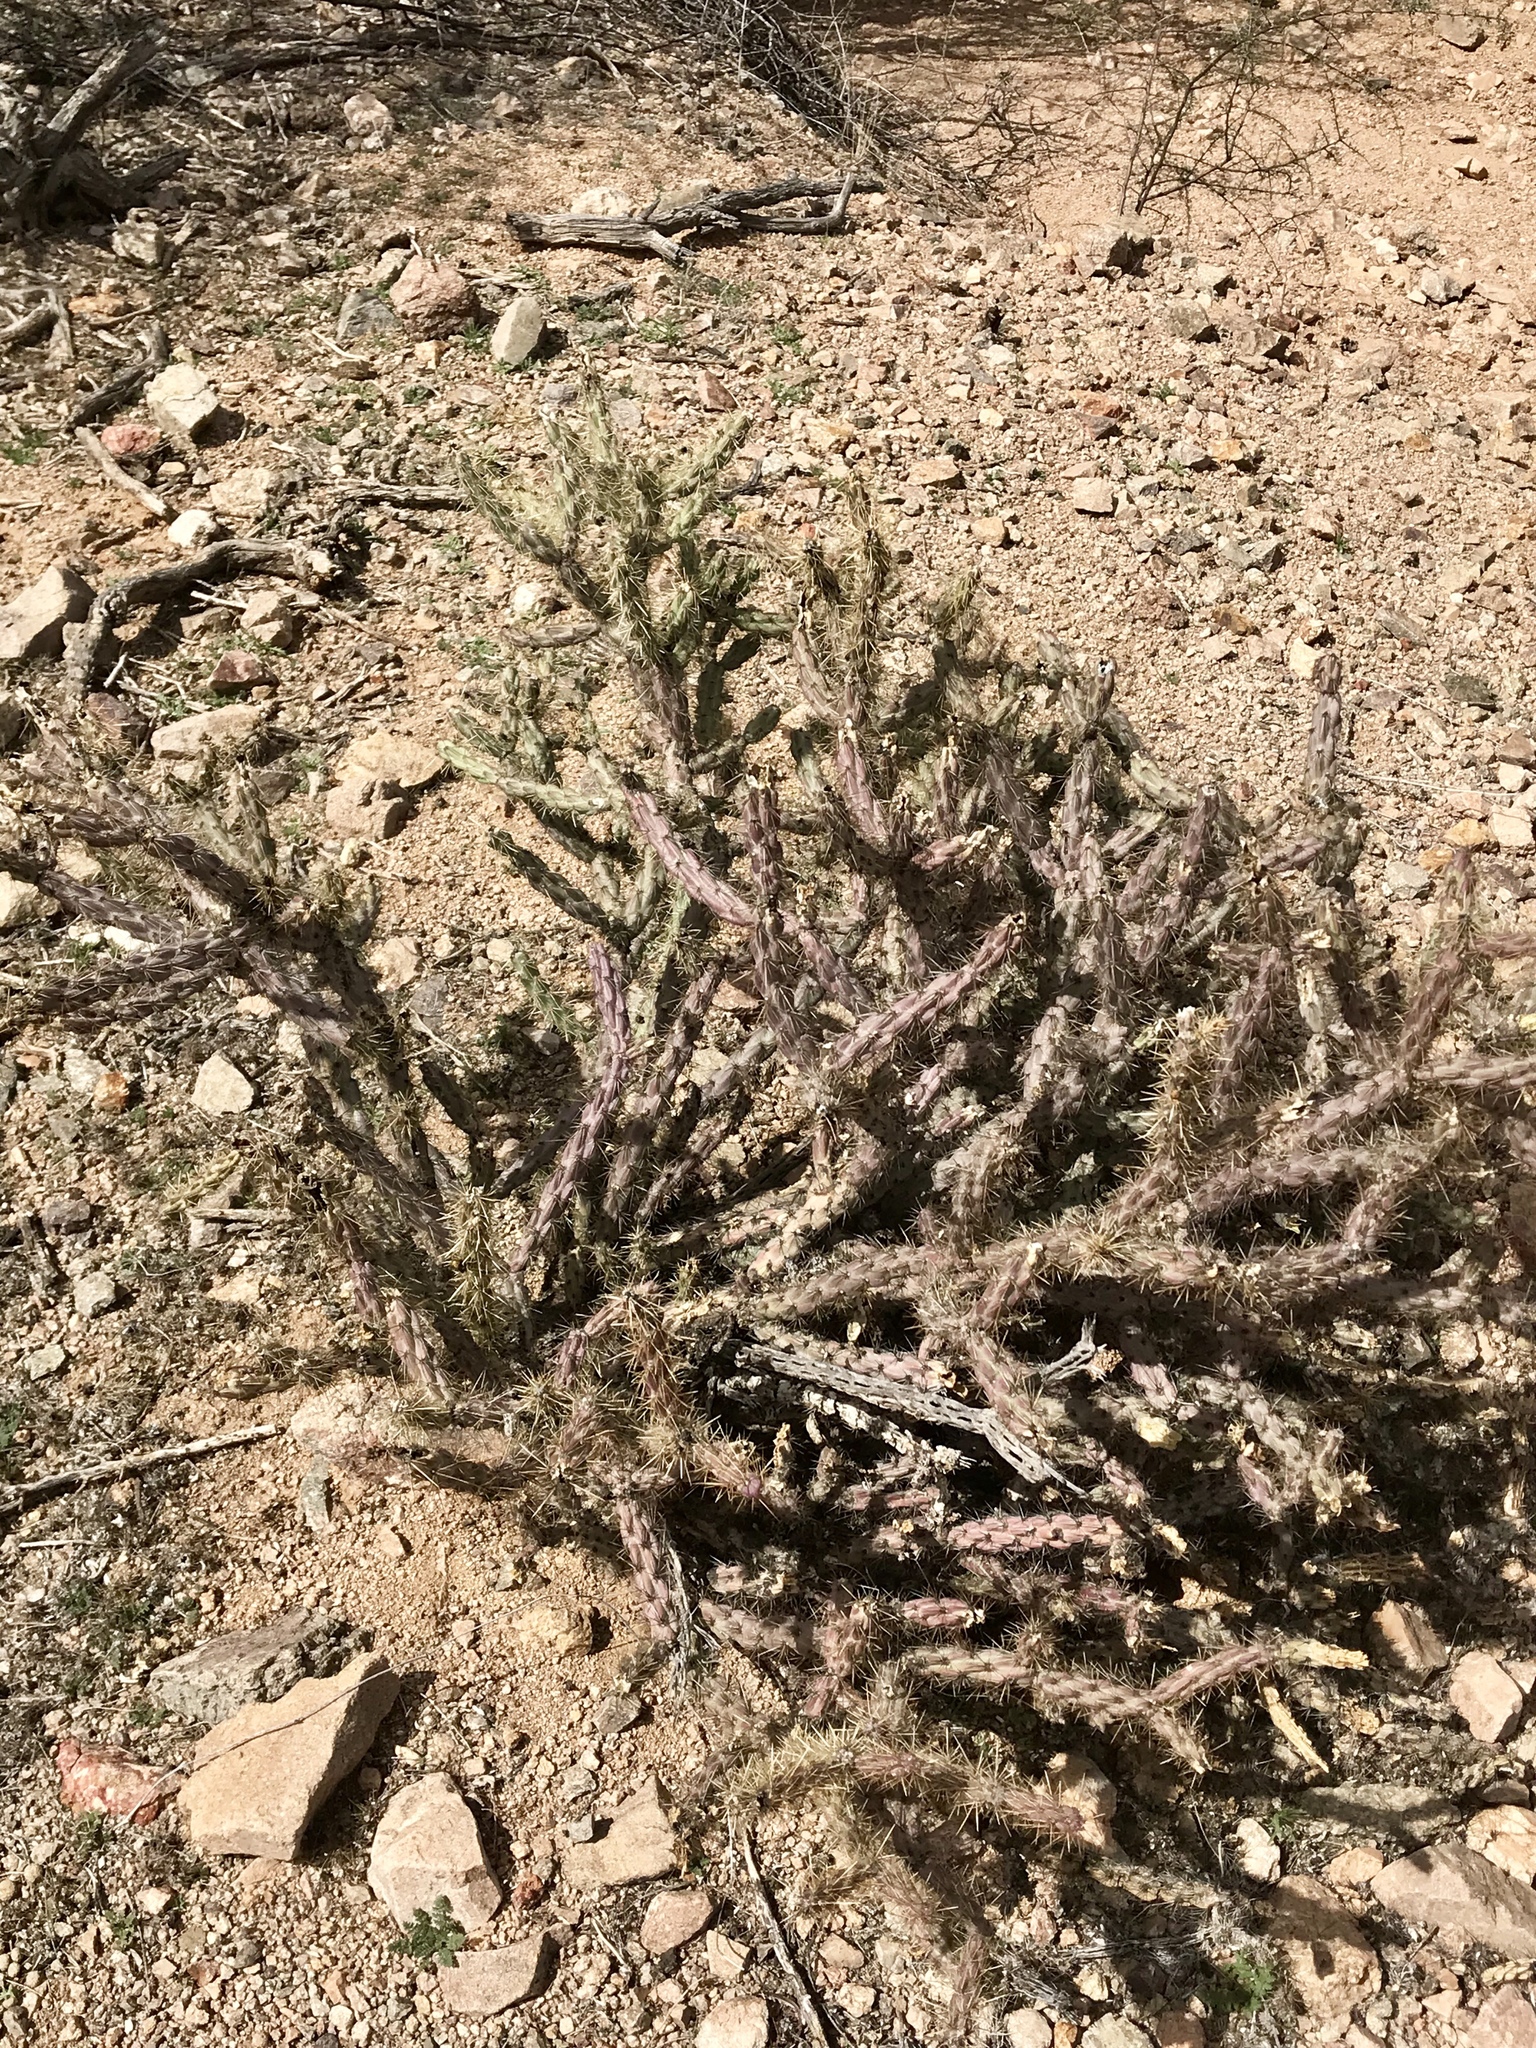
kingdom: Plantae
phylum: Tracheophyta
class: Magnoliopsida
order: Caryophyllales
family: Cactaceae
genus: Cylindropuntia
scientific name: Cylindropuntia acanthocarpa
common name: Buckhorn cholla
